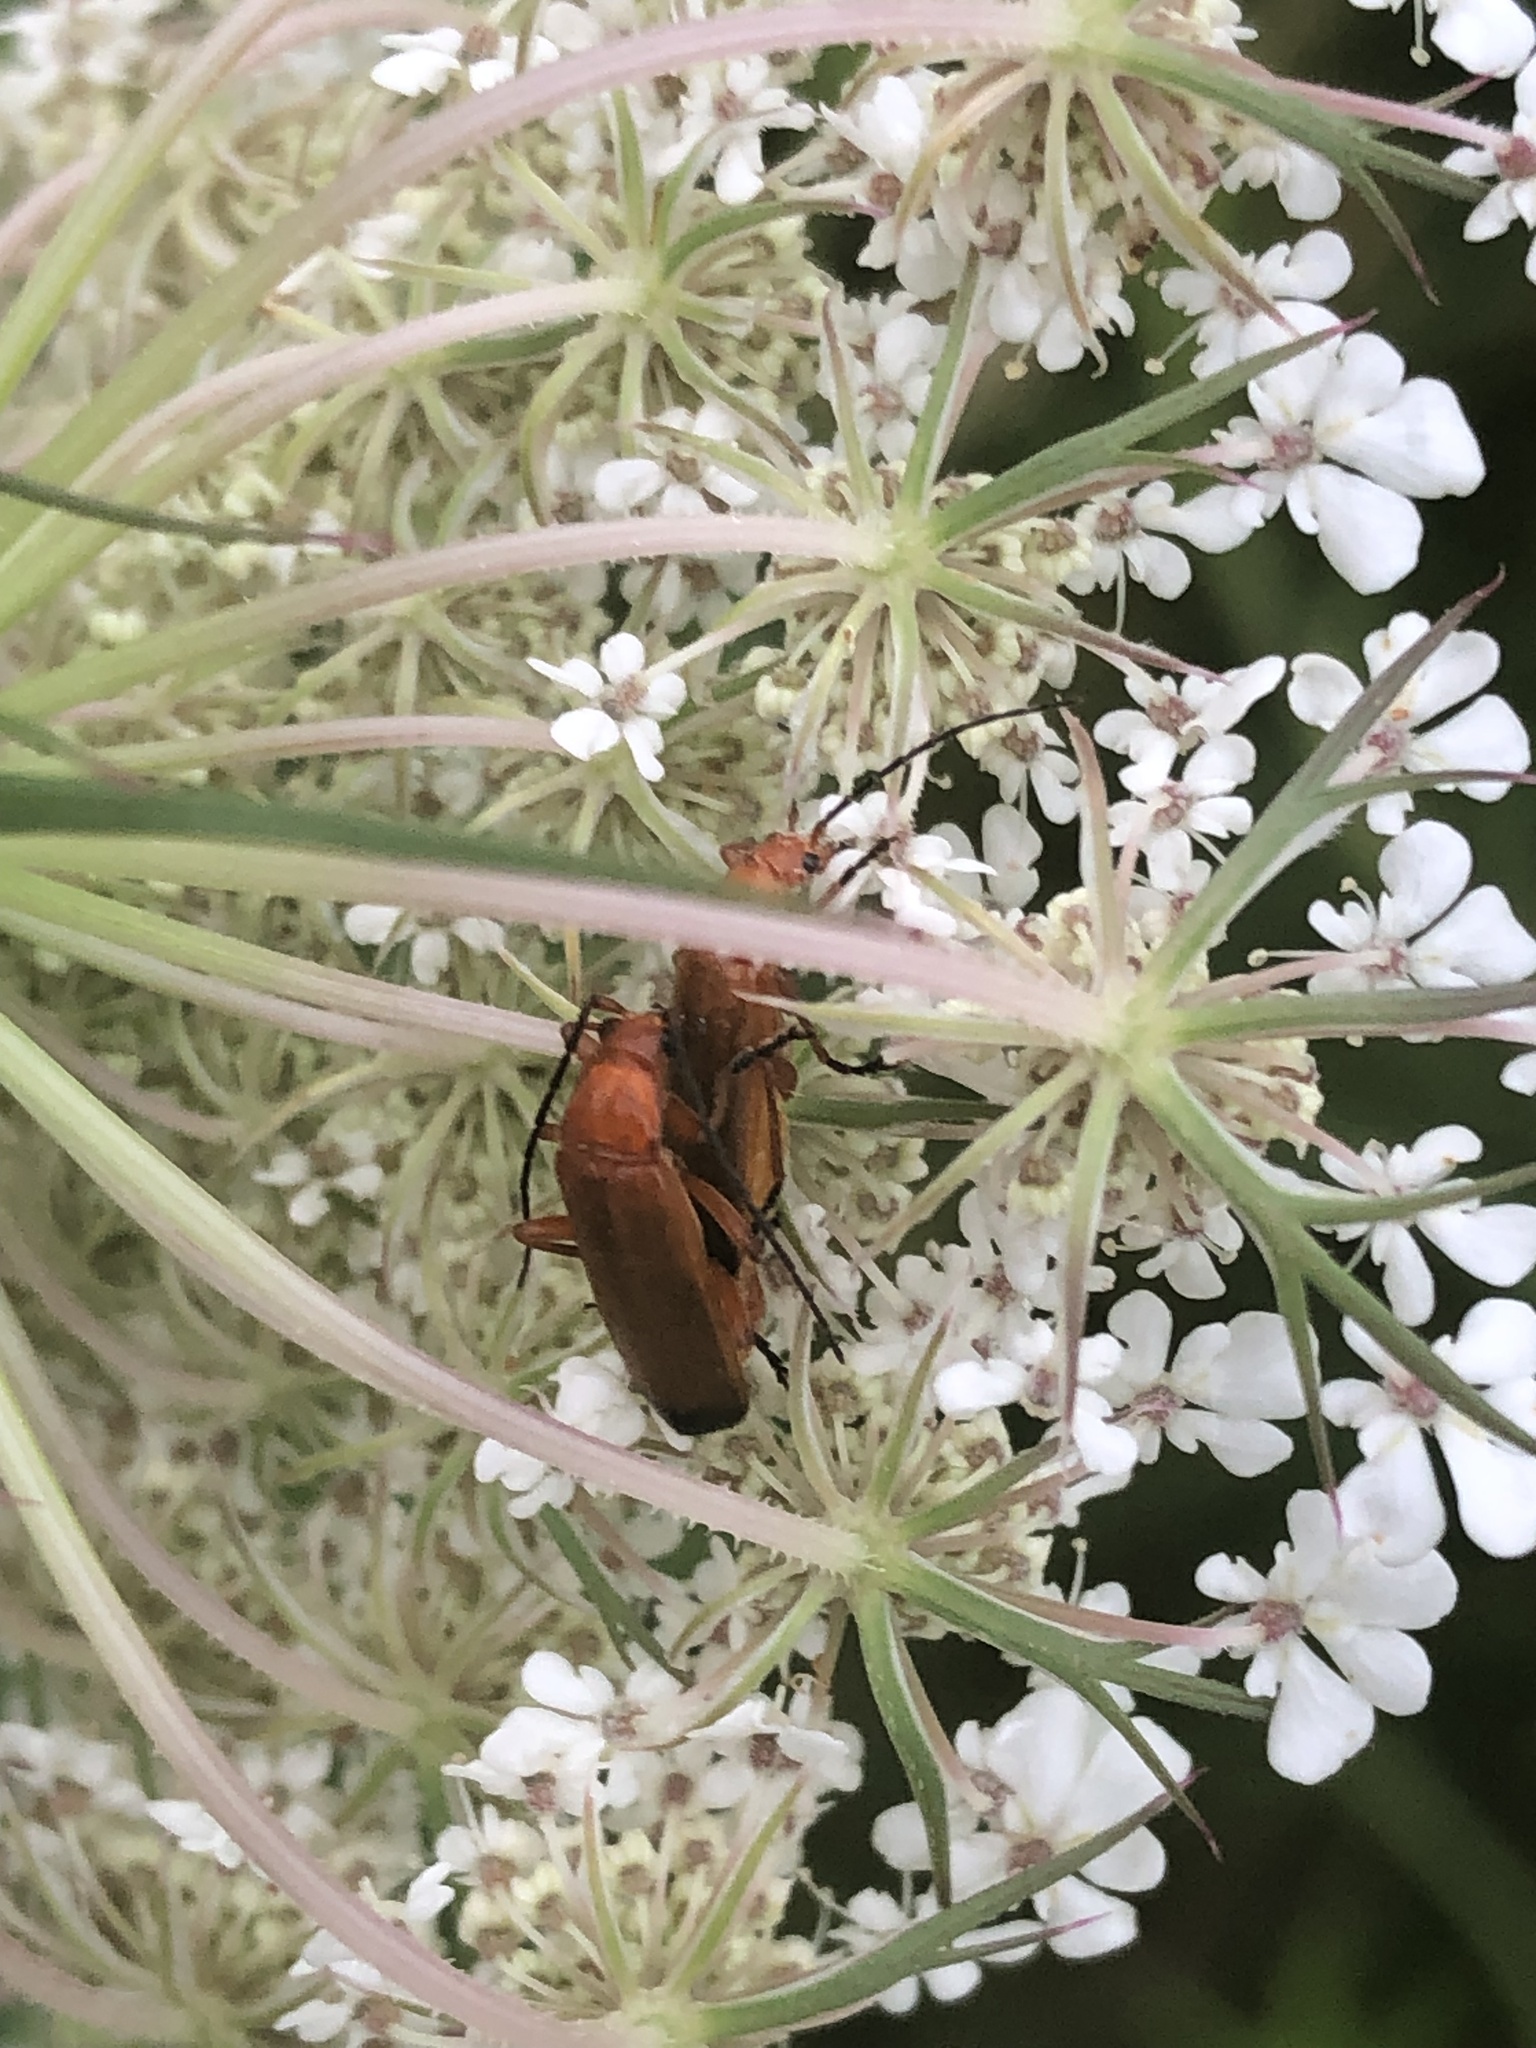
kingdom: Animalia
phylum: Arthropoda
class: Insecta
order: Coleoptera
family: Cantharidae
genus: Rhagonycha
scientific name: Rhagonycha fulva
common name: Common red soldier beetle
